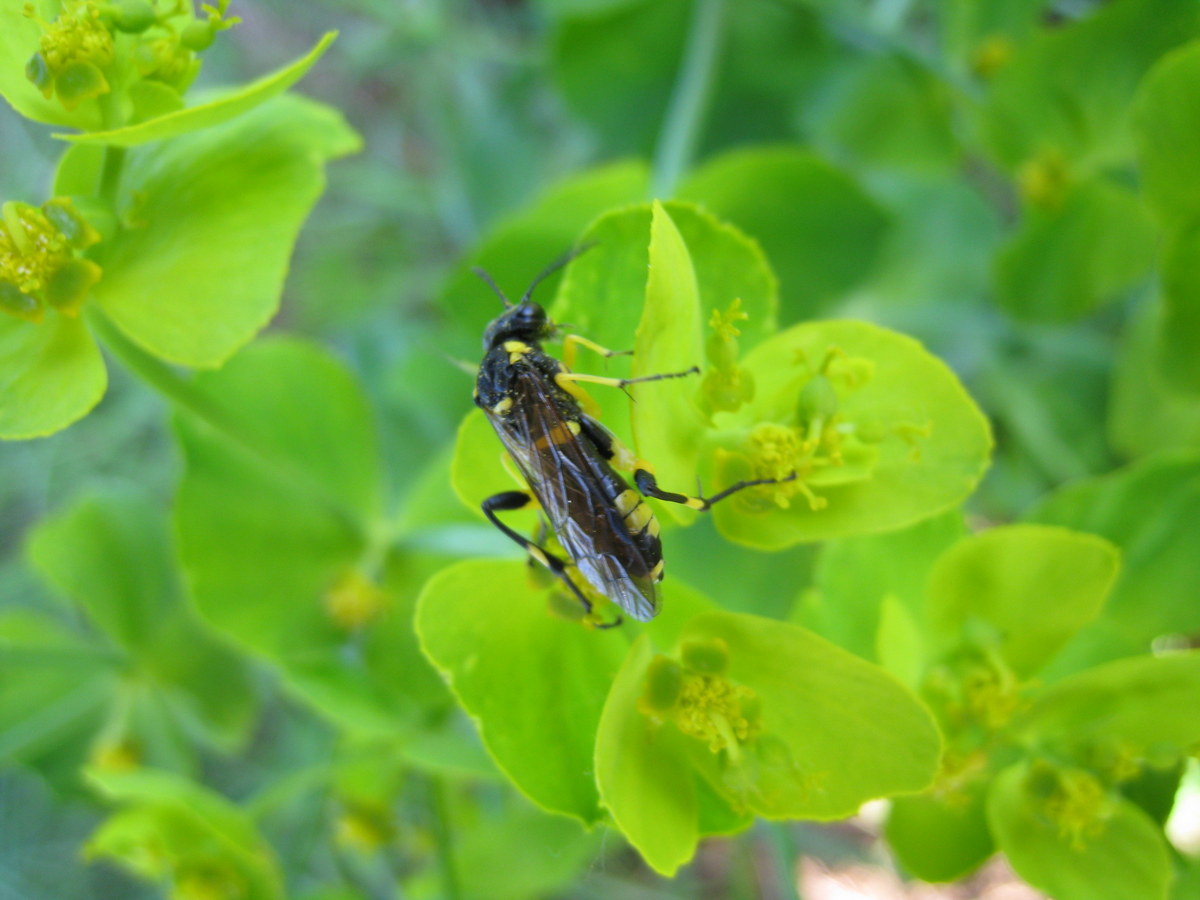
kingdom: Animalia
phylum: Arthropoda
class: Insecta
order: Hymenoptera
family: Tenthredinidae
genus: Macrophya
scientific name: Macrophya montana
